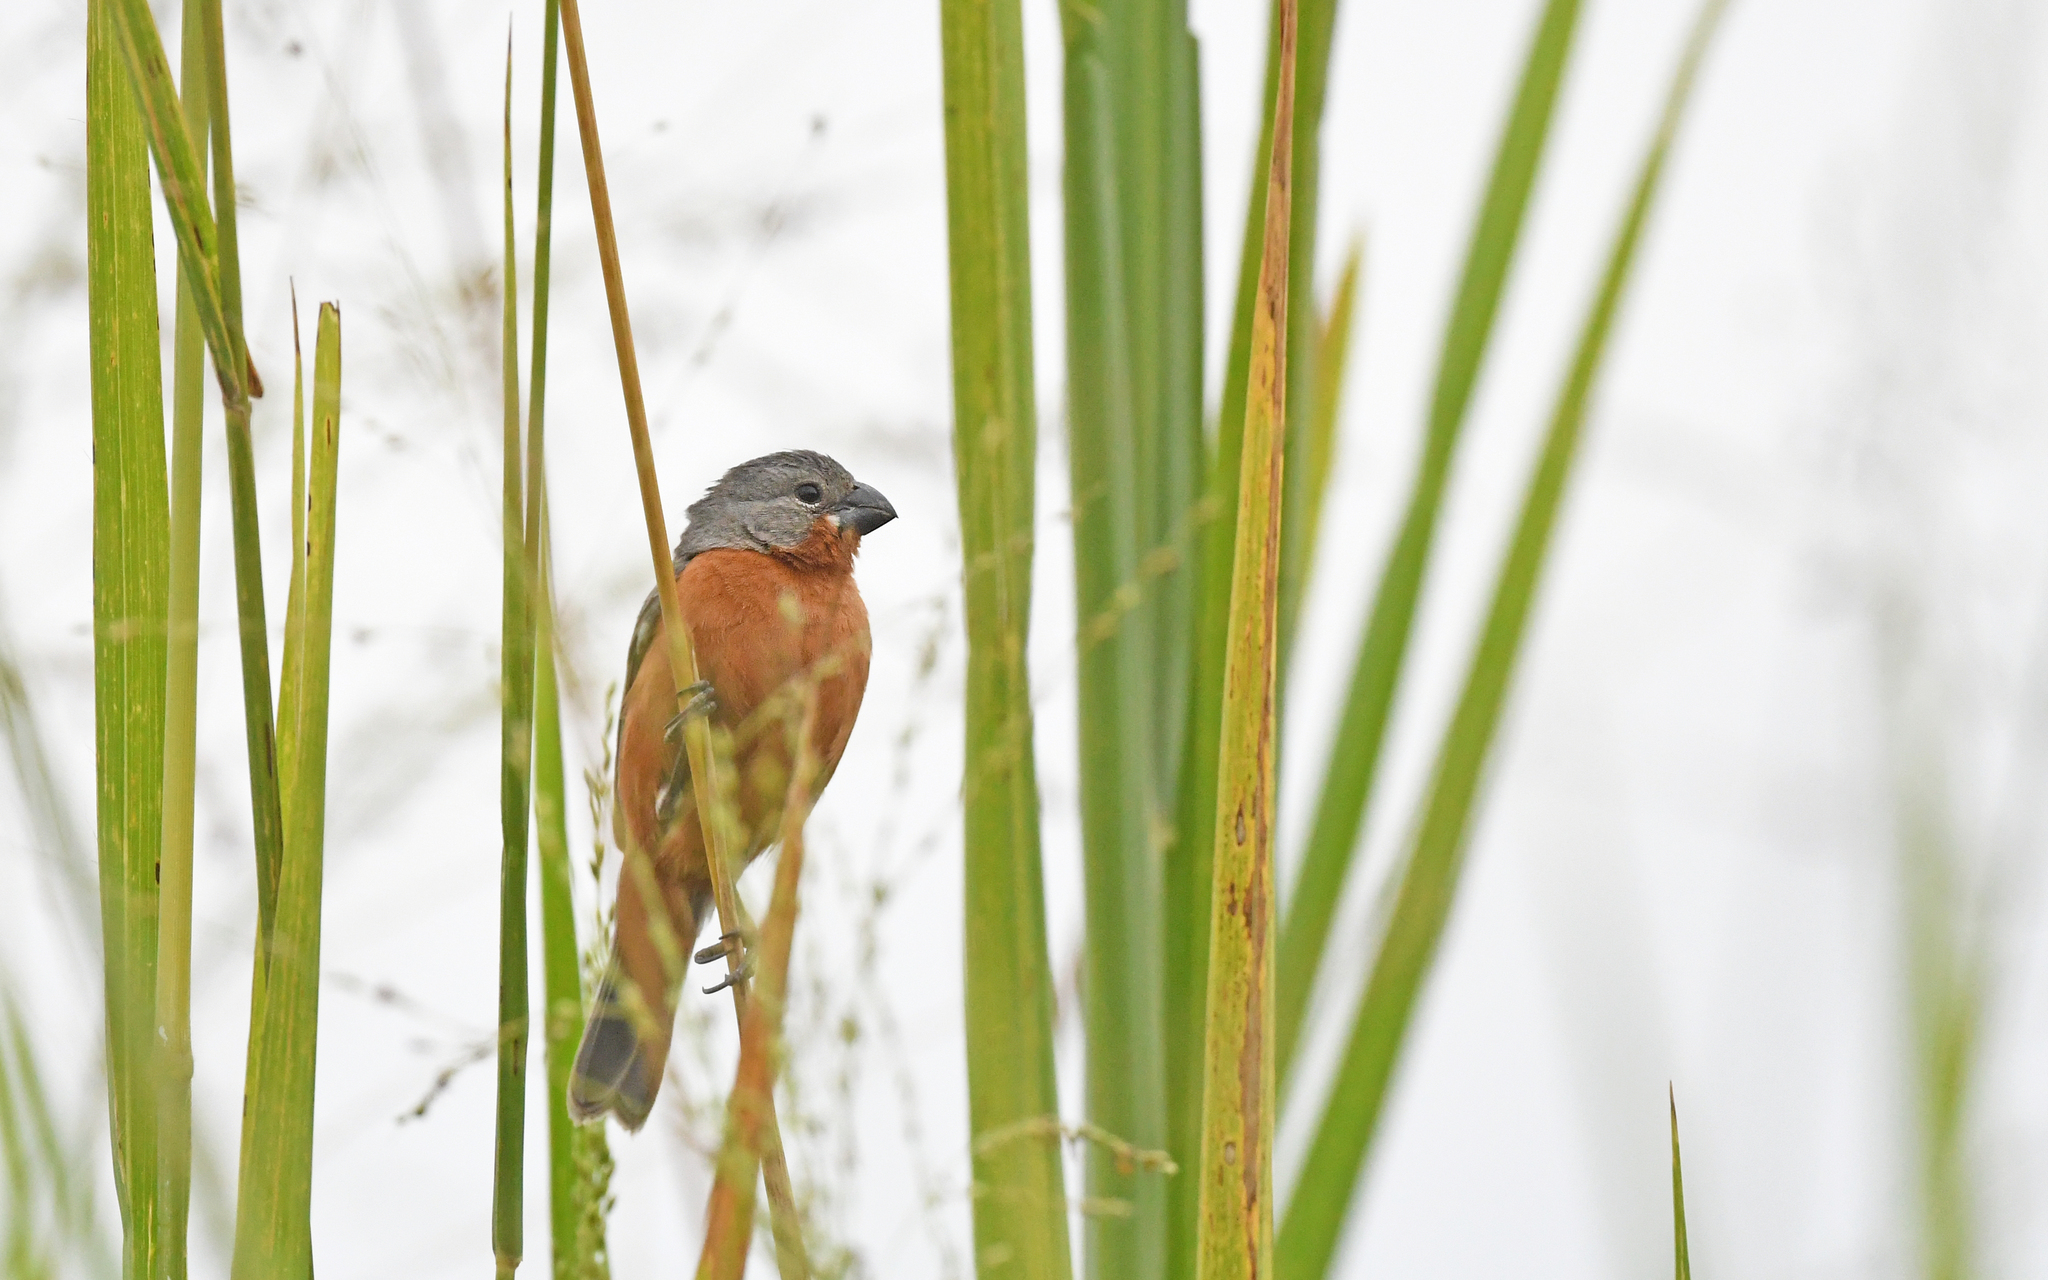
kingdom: Animalia
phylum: Chordata
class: Aves
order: Passeriformes
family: Thraupidae
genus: Sporophila
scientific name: Sporophila minuta
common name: Ruddy-breasted seedeater
